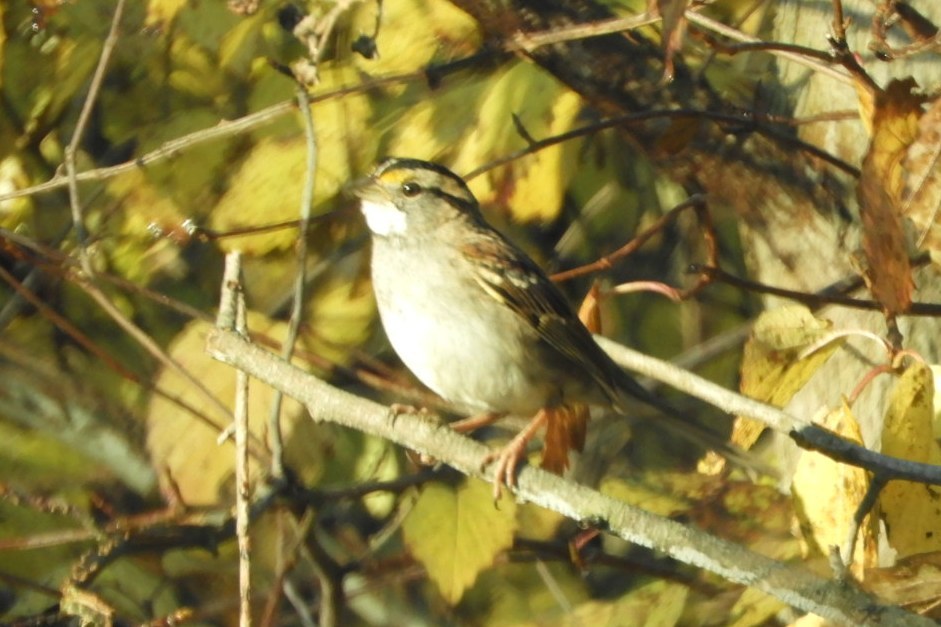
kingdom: Animalia
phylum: Chordata
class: Aves
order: Passeriformes
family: Passerellidae
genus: Zonotrichia
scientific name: Zonotrichia albicollis
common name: White-throated sparrow
